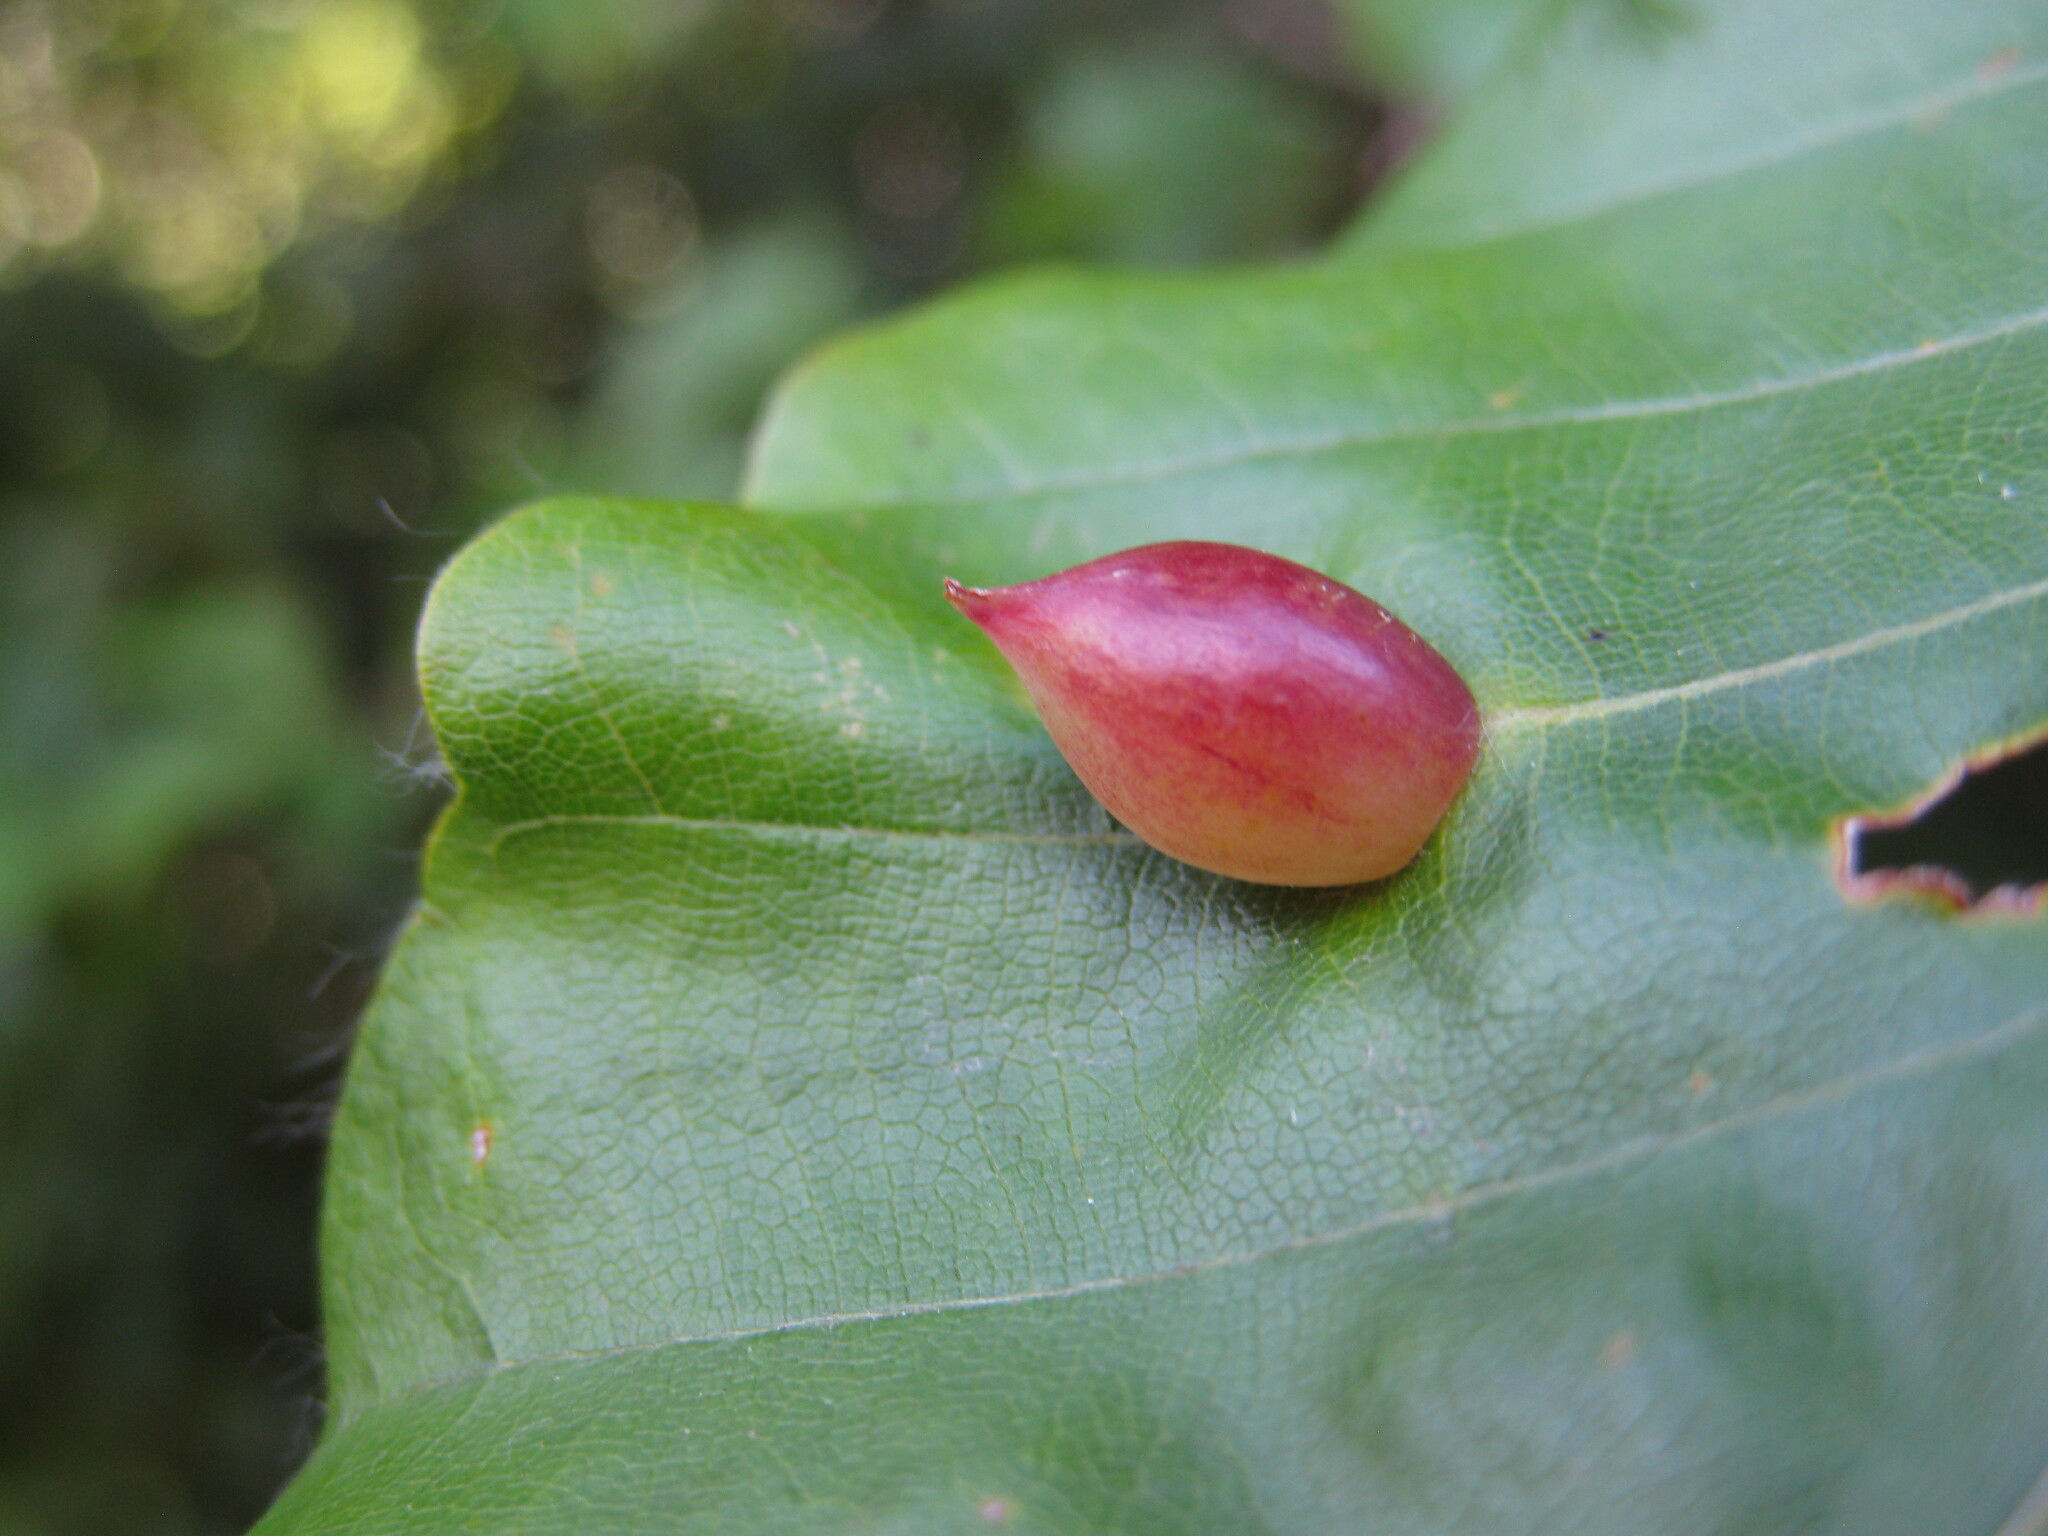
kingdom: Animalia
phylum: Arthropoda
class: Insecta
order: Diptera
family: Cecidomyiidae
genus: Mikiola
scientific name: Mikiola fagi
